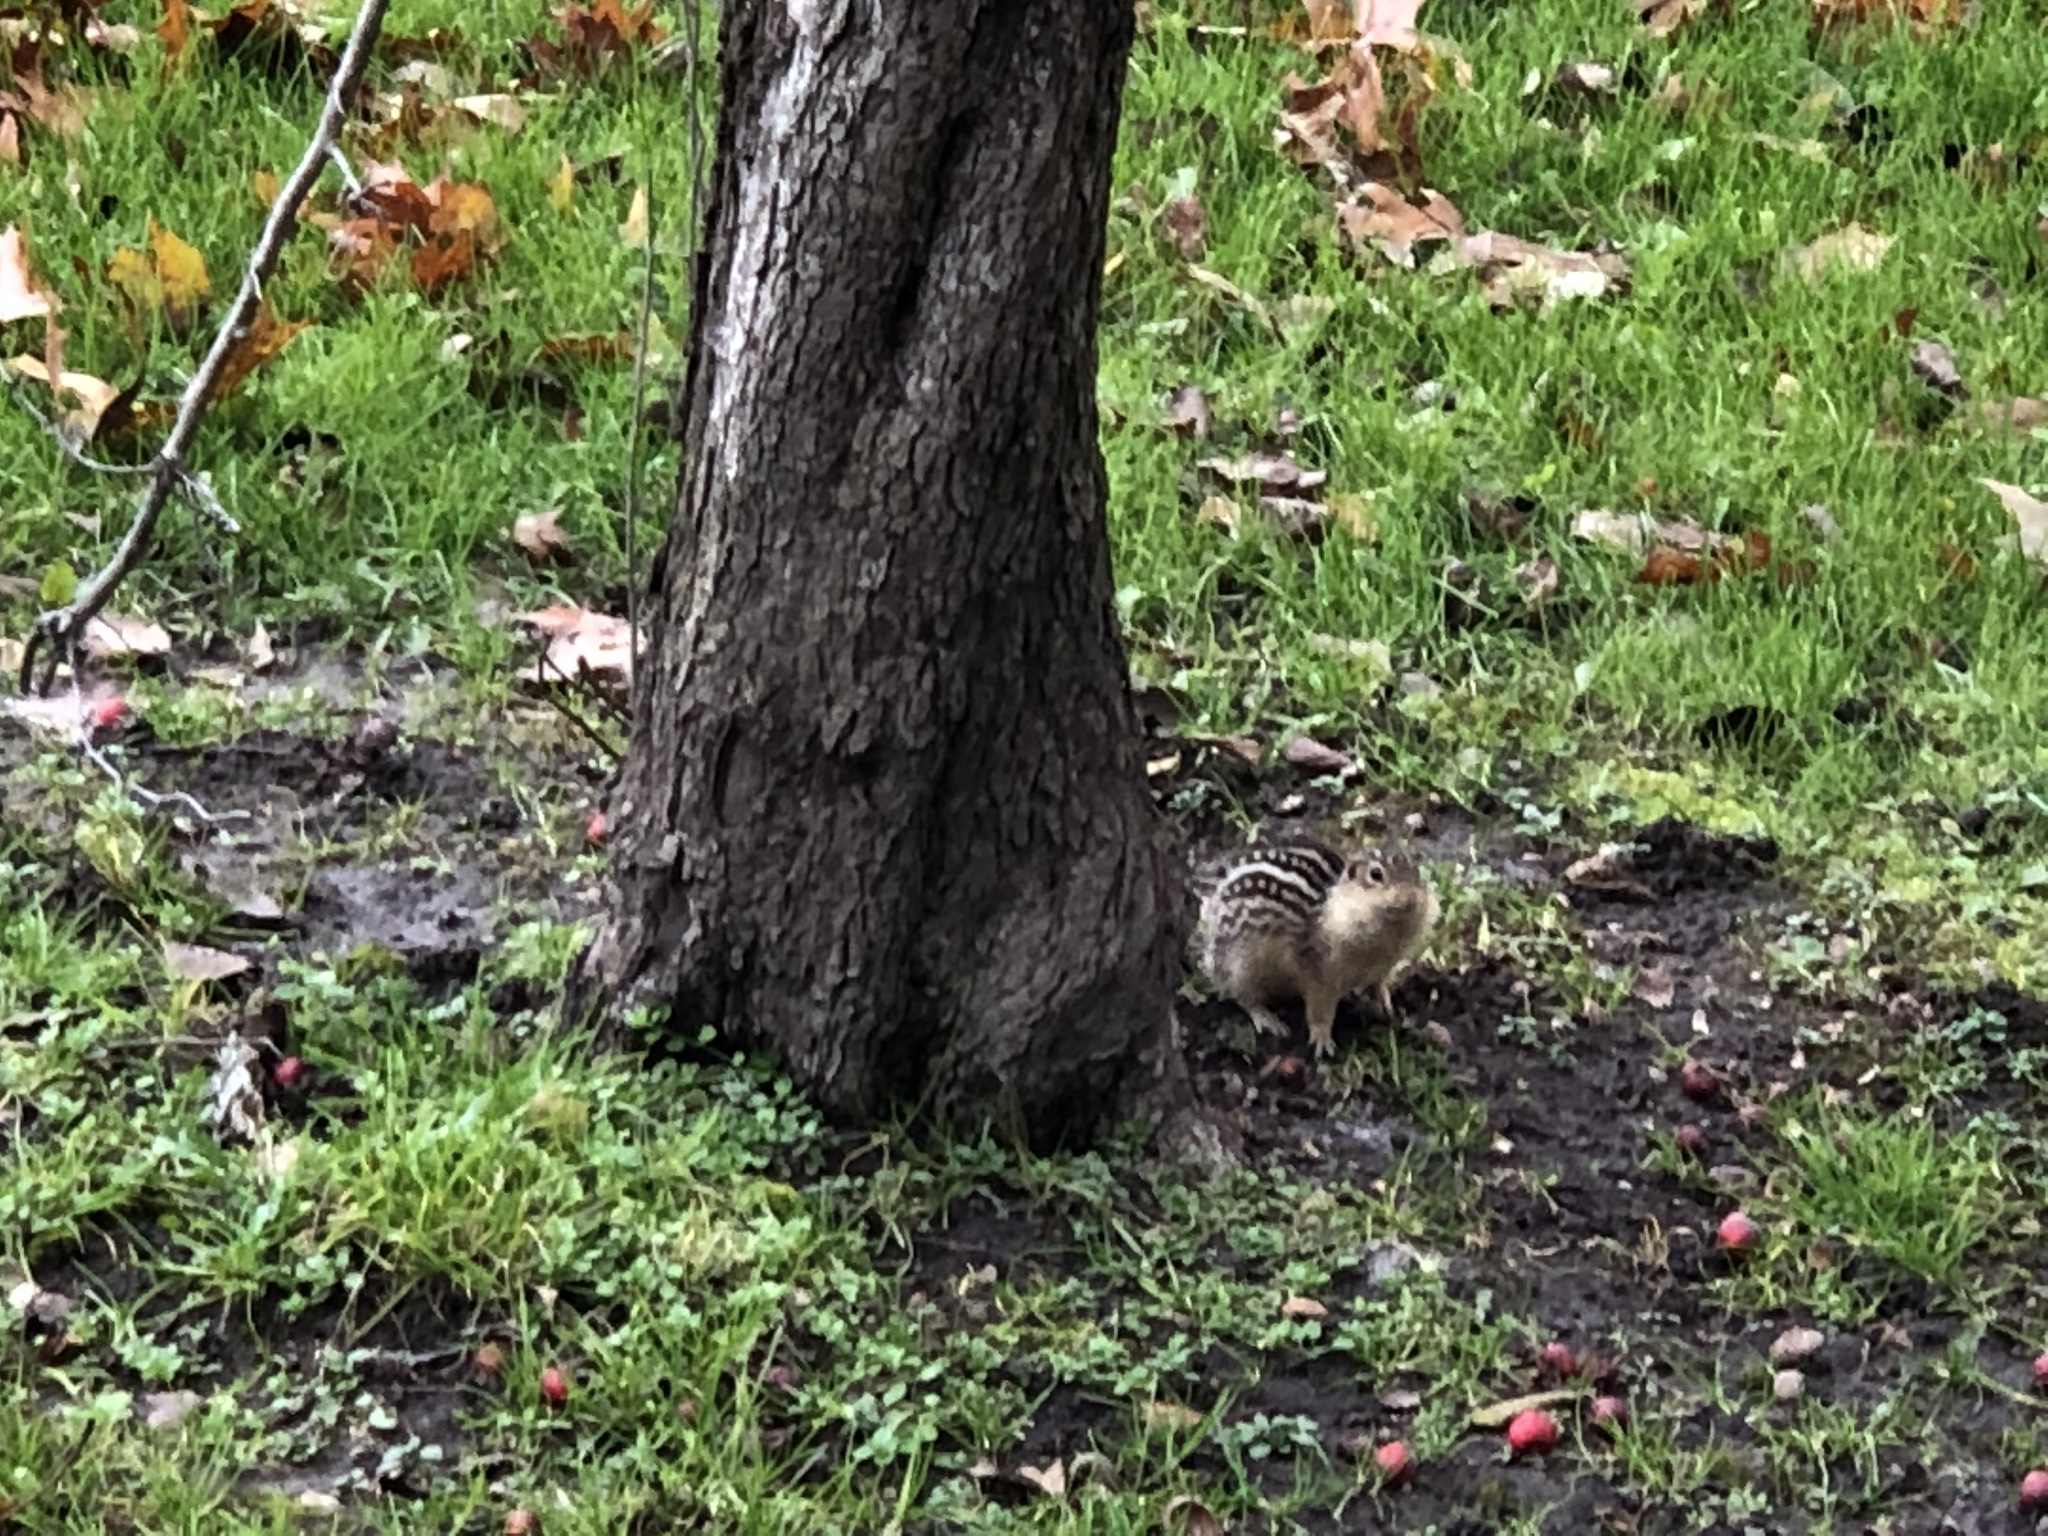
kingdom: Animalia
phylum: Chordata
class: Mammalia
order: Rodentia
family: Sciuridae
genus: Ictidomys
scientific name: Ictidomys tridecemlineatus
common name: Thirteen-lined ground squirrel
